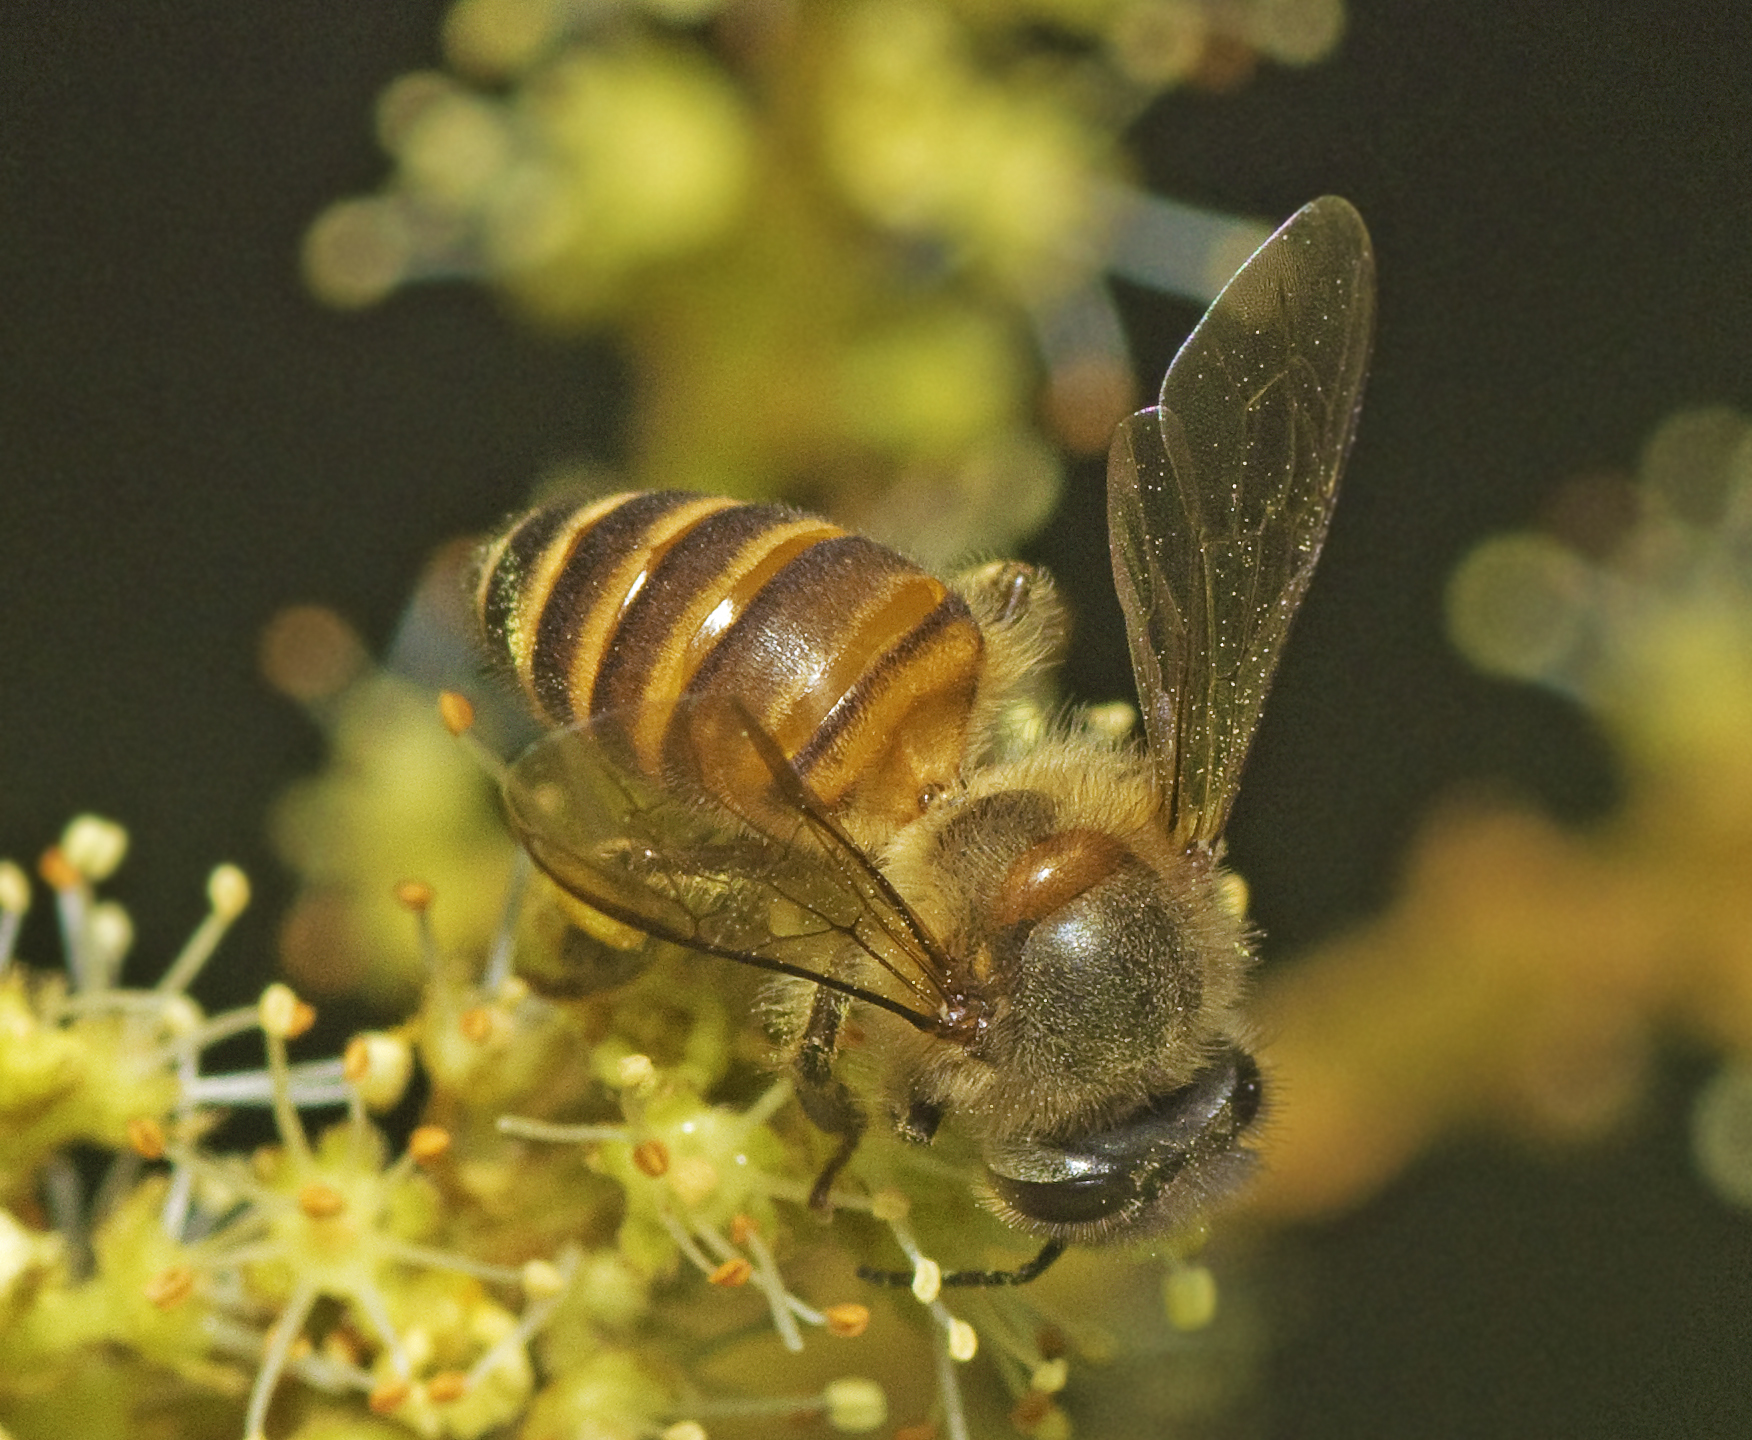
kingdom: Animalia
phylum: Arthropoda
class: Insecta
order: Hymenoptera
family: Apidae
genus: Apis
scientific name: Apis cerana
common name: Honey bee
